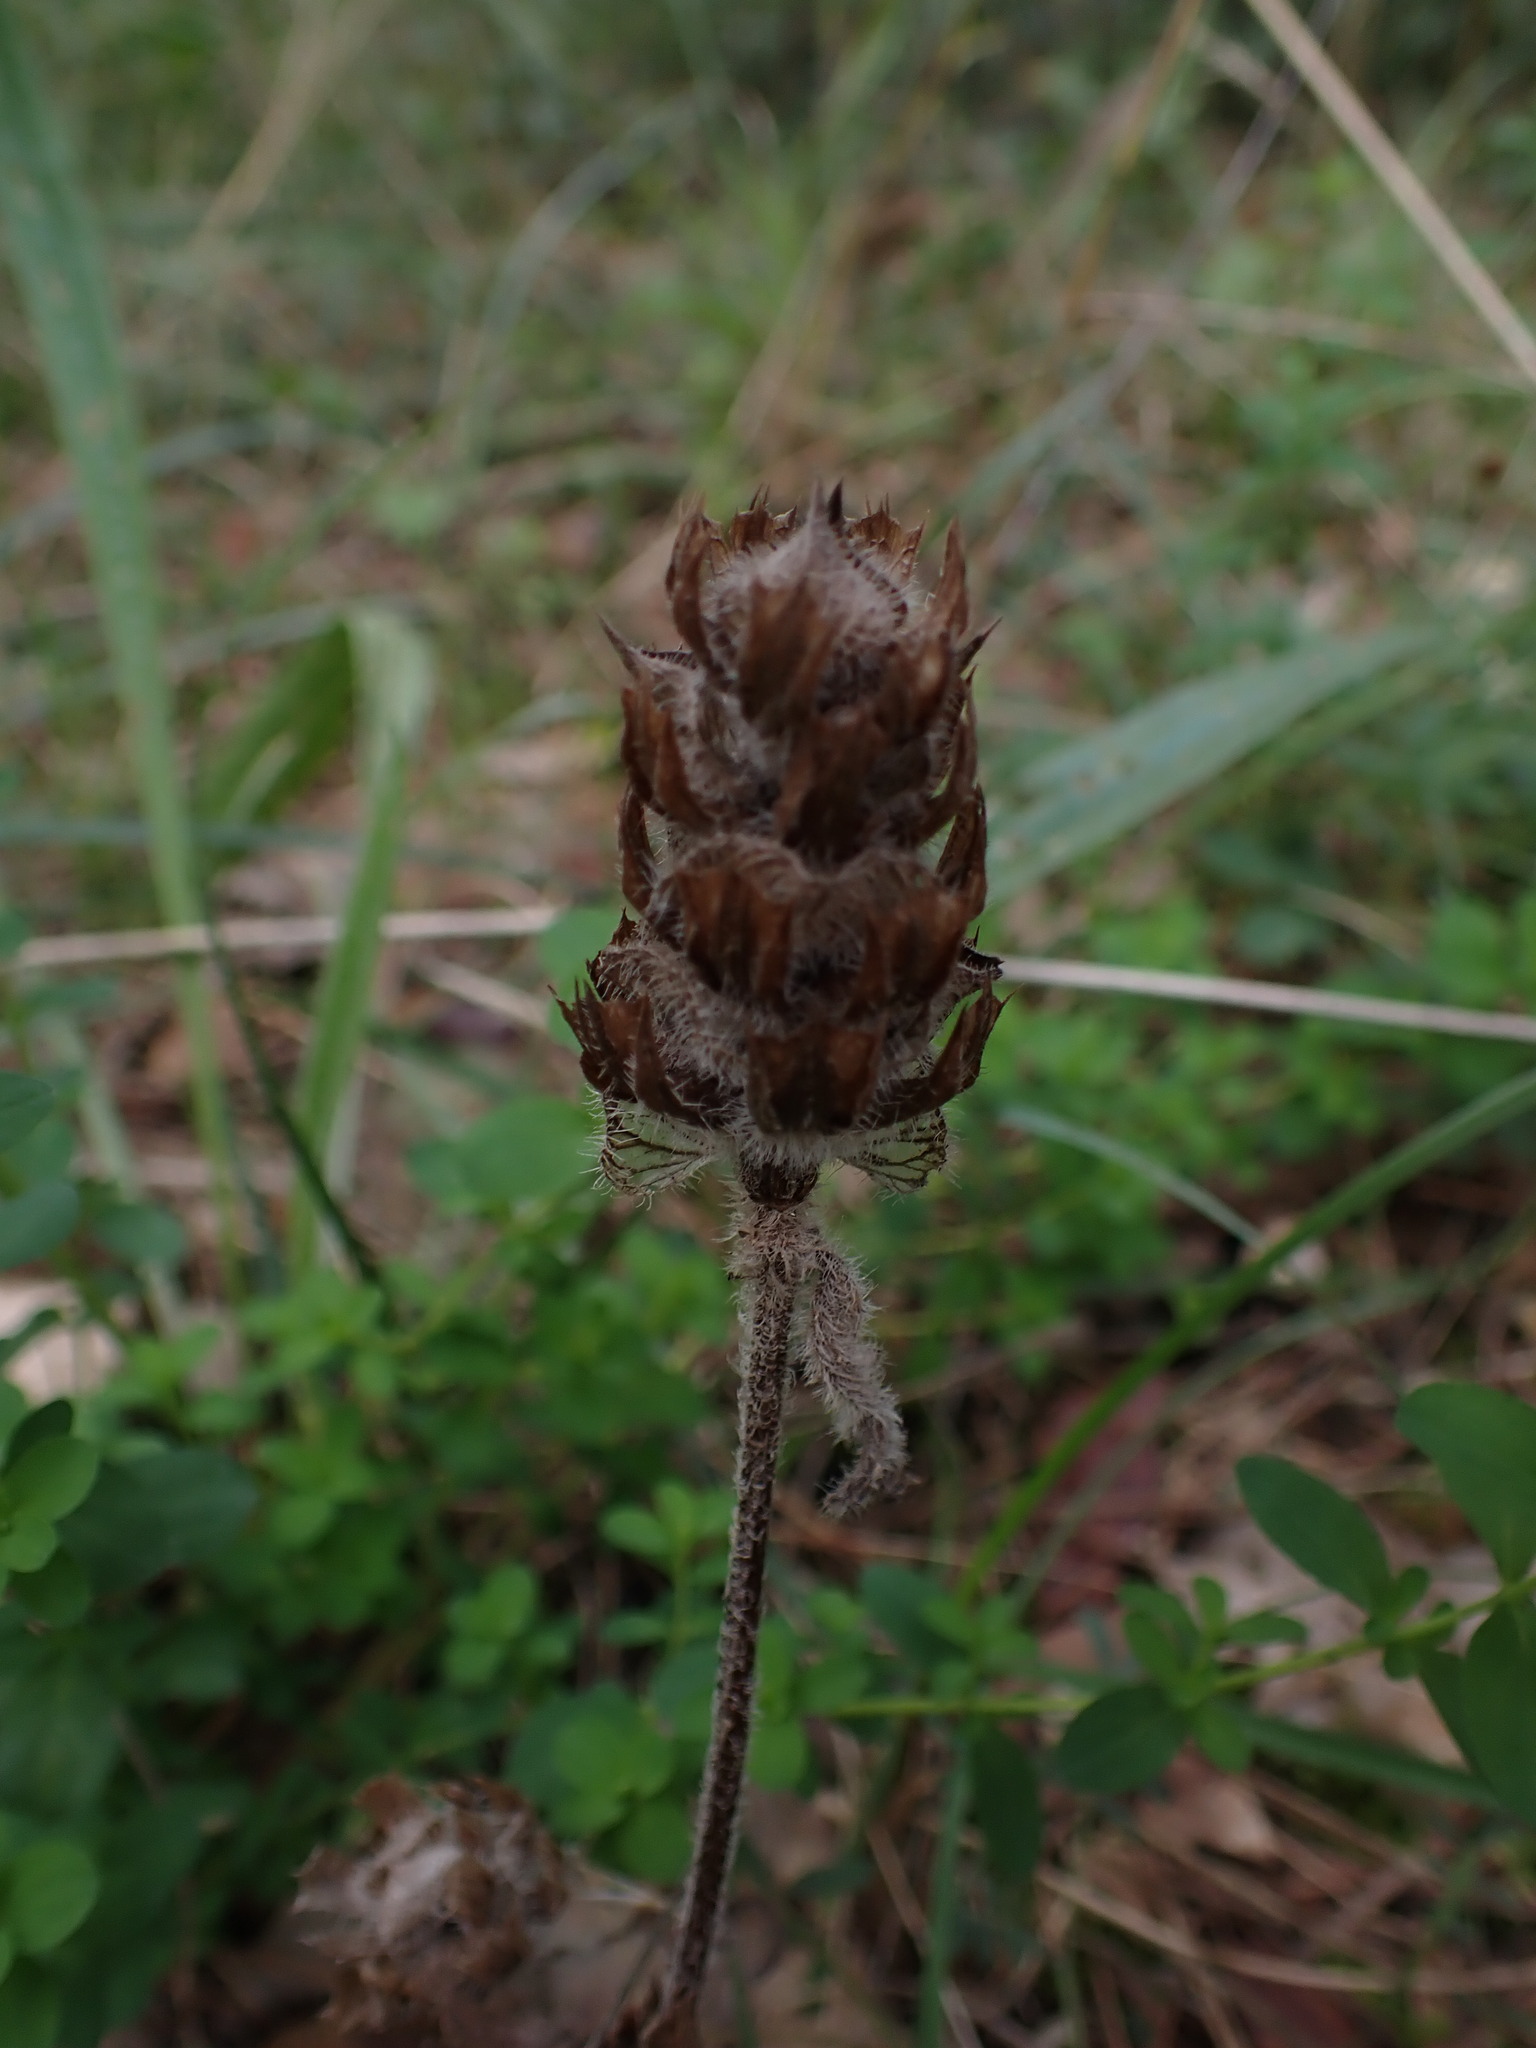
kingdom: Plantae
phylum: Tracheophyta
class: Magnoliopsida
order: Lamiales
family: Lamiaceae
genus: Prunella
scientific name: Prunella vulgaris
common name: Heal-all
